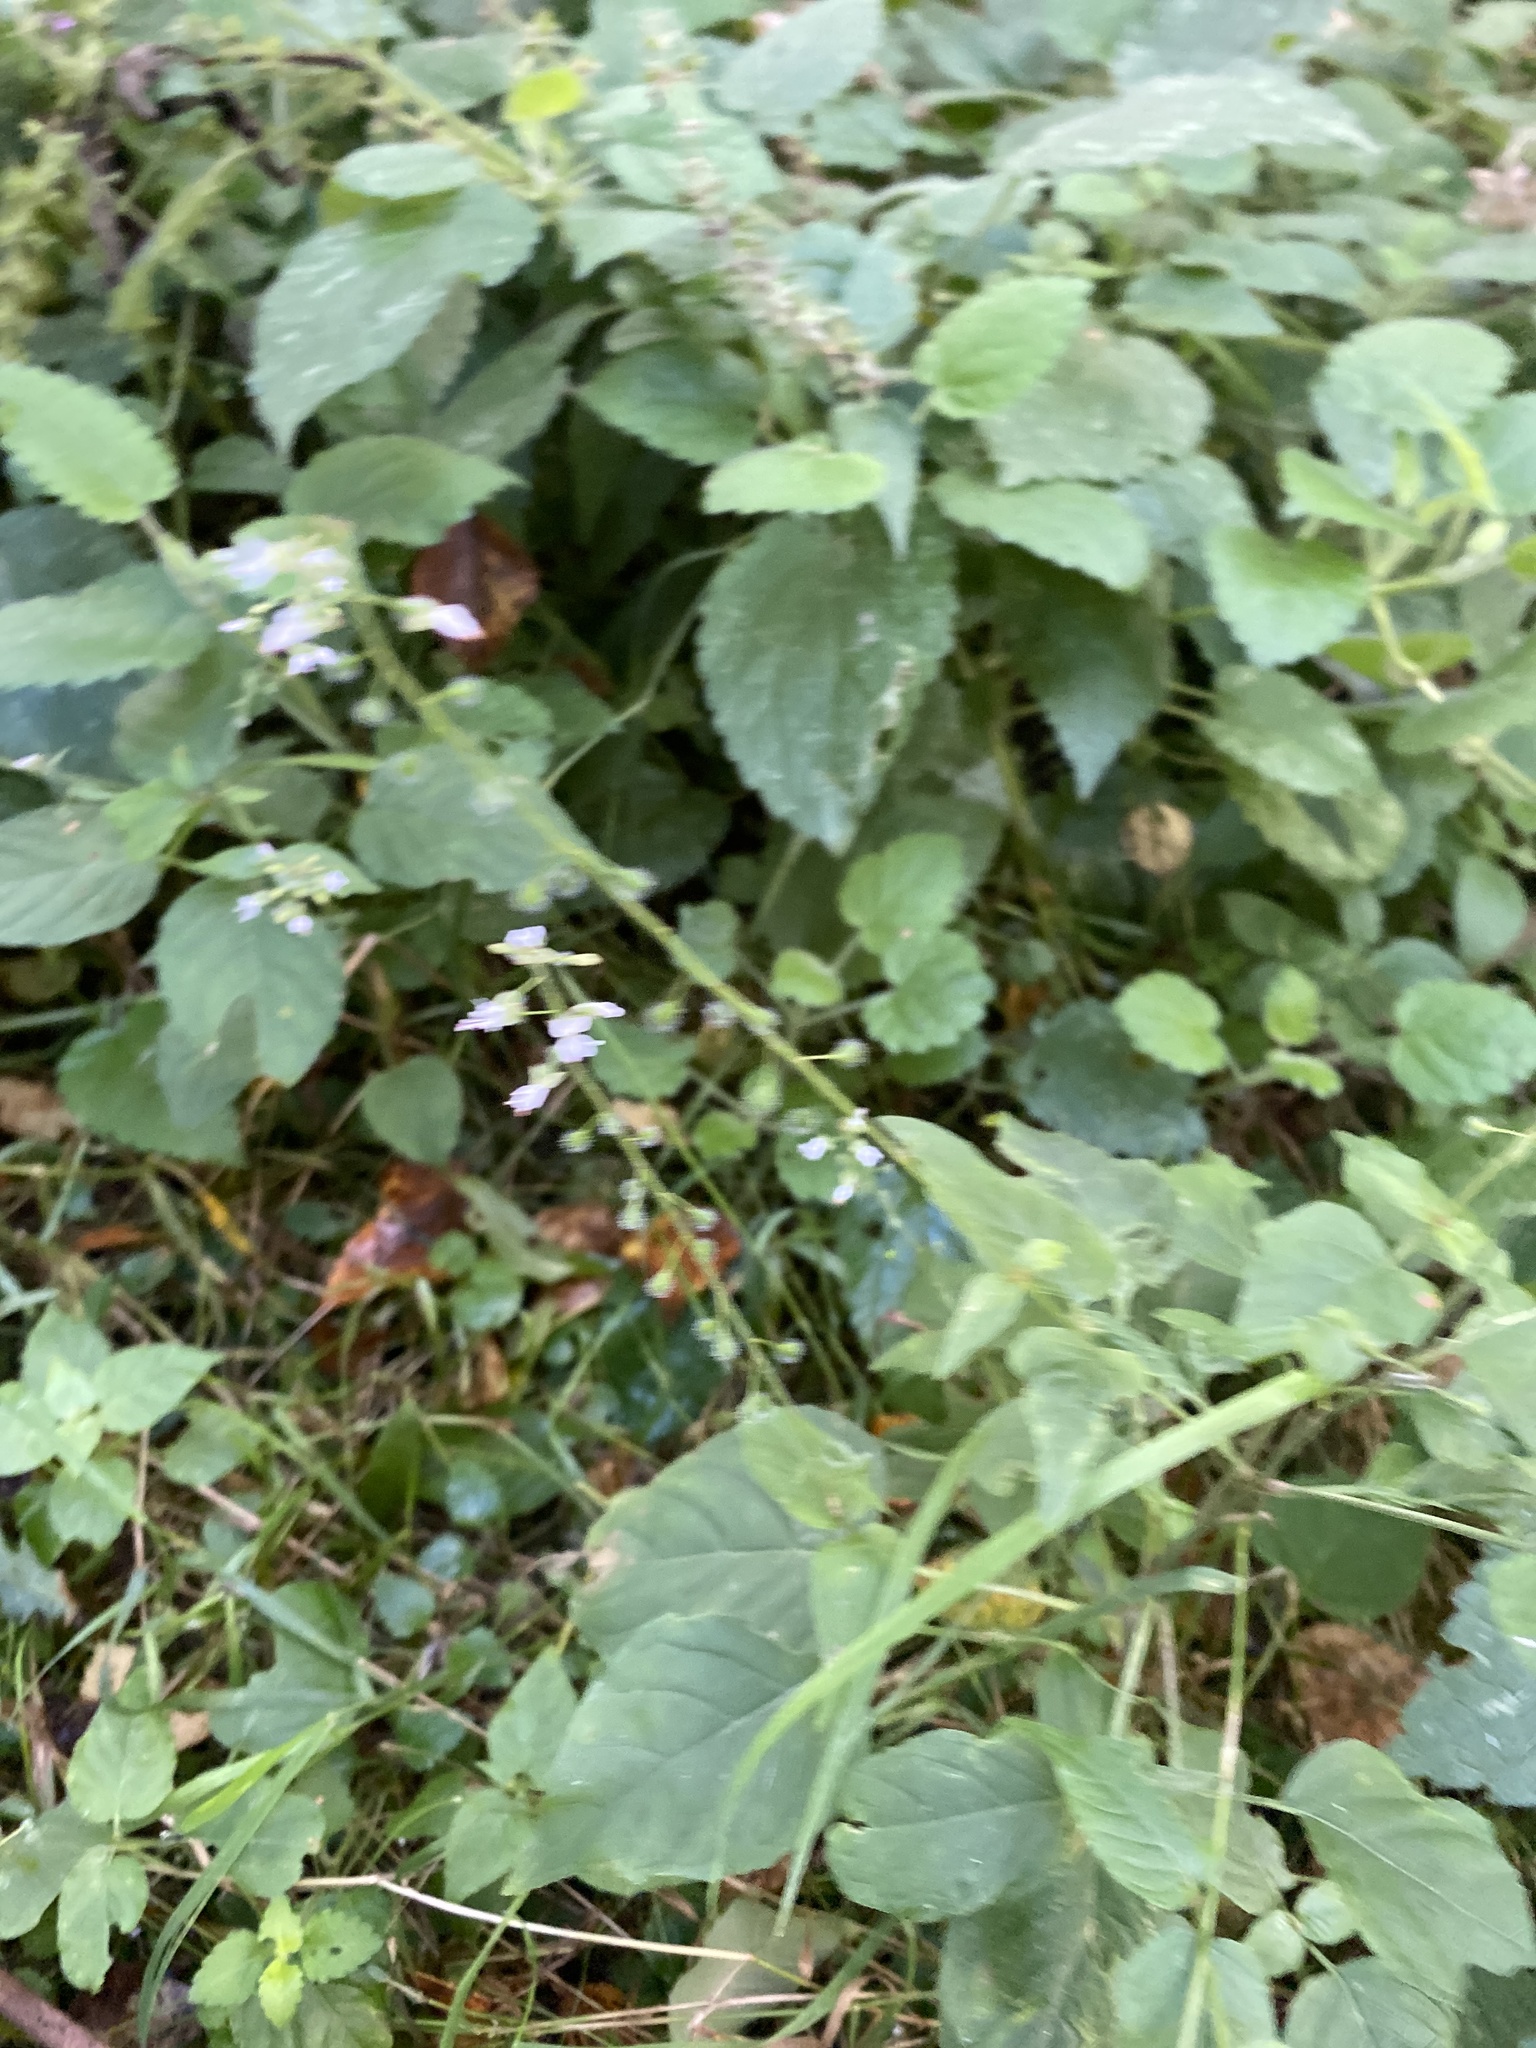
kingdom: Plantae
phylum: Tracheophyta
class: Magnoliopsida
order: Myrtales
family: Onagraceae
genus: Circaea
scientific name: Circaea lutetiana
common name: Enchanter's-nightshade
